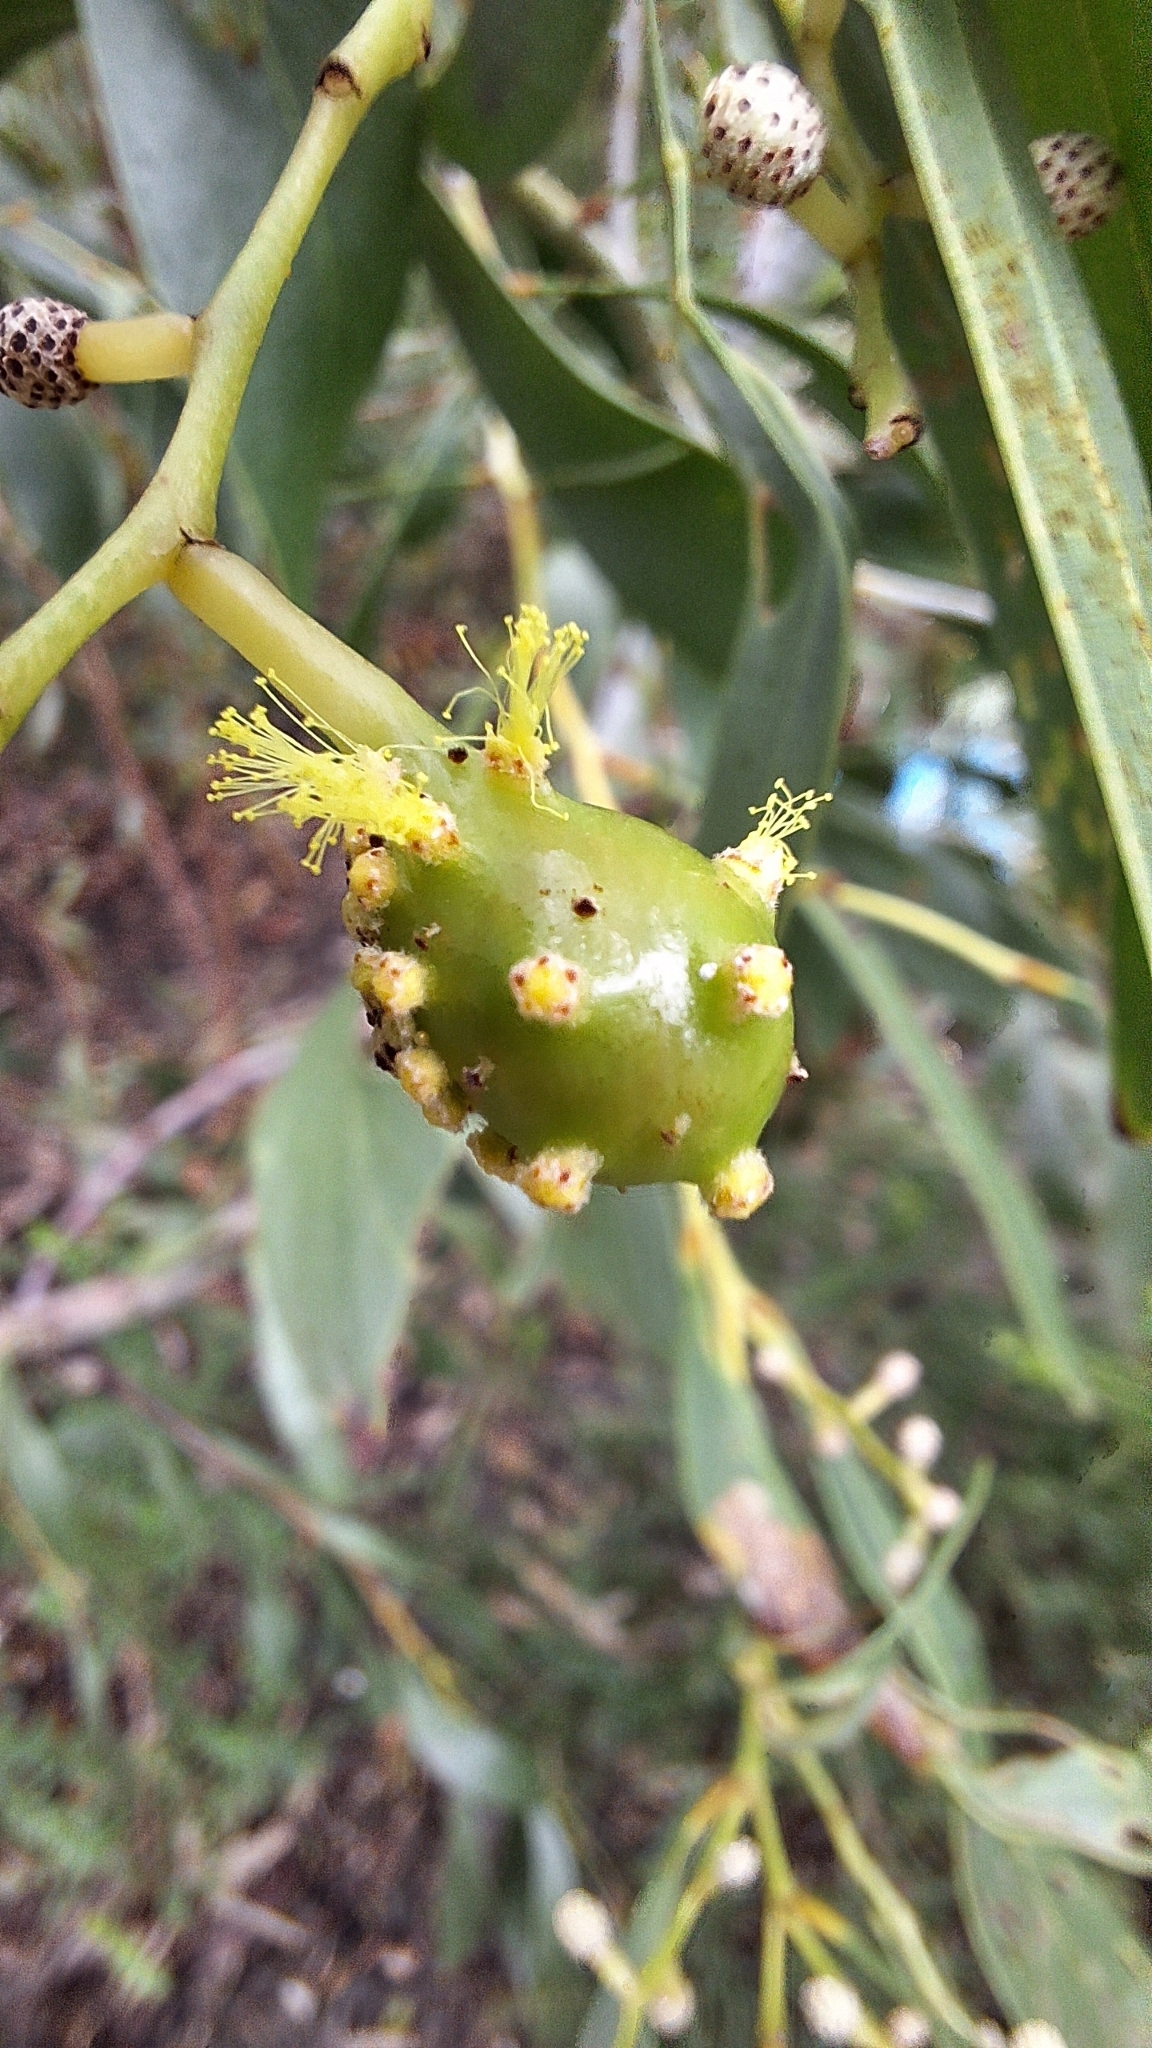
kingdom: Animalia
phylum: Arthropoda
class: Insecta
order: Hymenoptera
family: Pteromalidae
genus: Trichilogaster
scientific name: Trichilogaster signiventris
